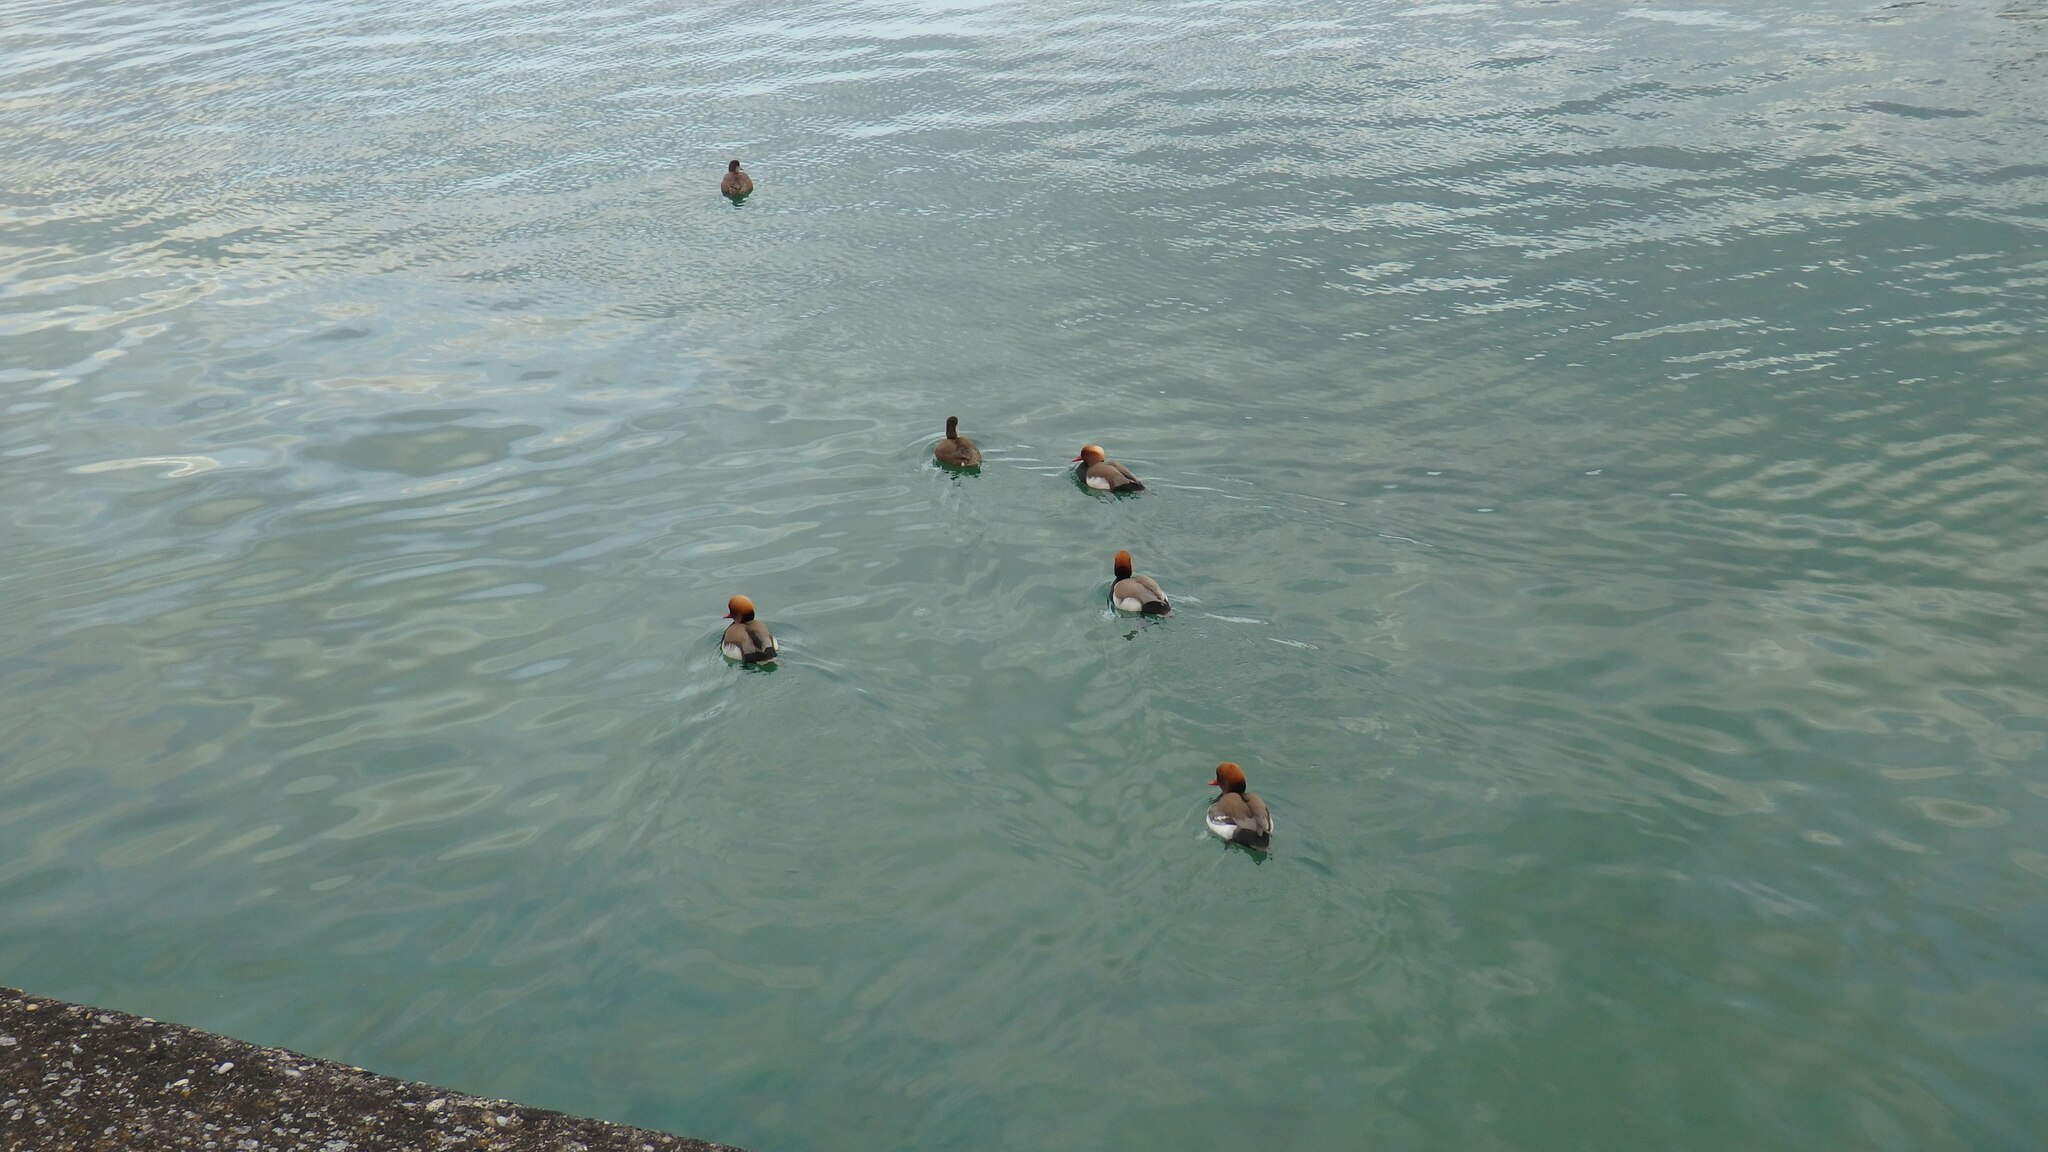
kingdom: Animalia
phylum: Chordata
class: Aves
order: Anseriformes
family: Anatidae
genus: Netta
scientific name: Netta rufina
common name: Red-crested pochard
